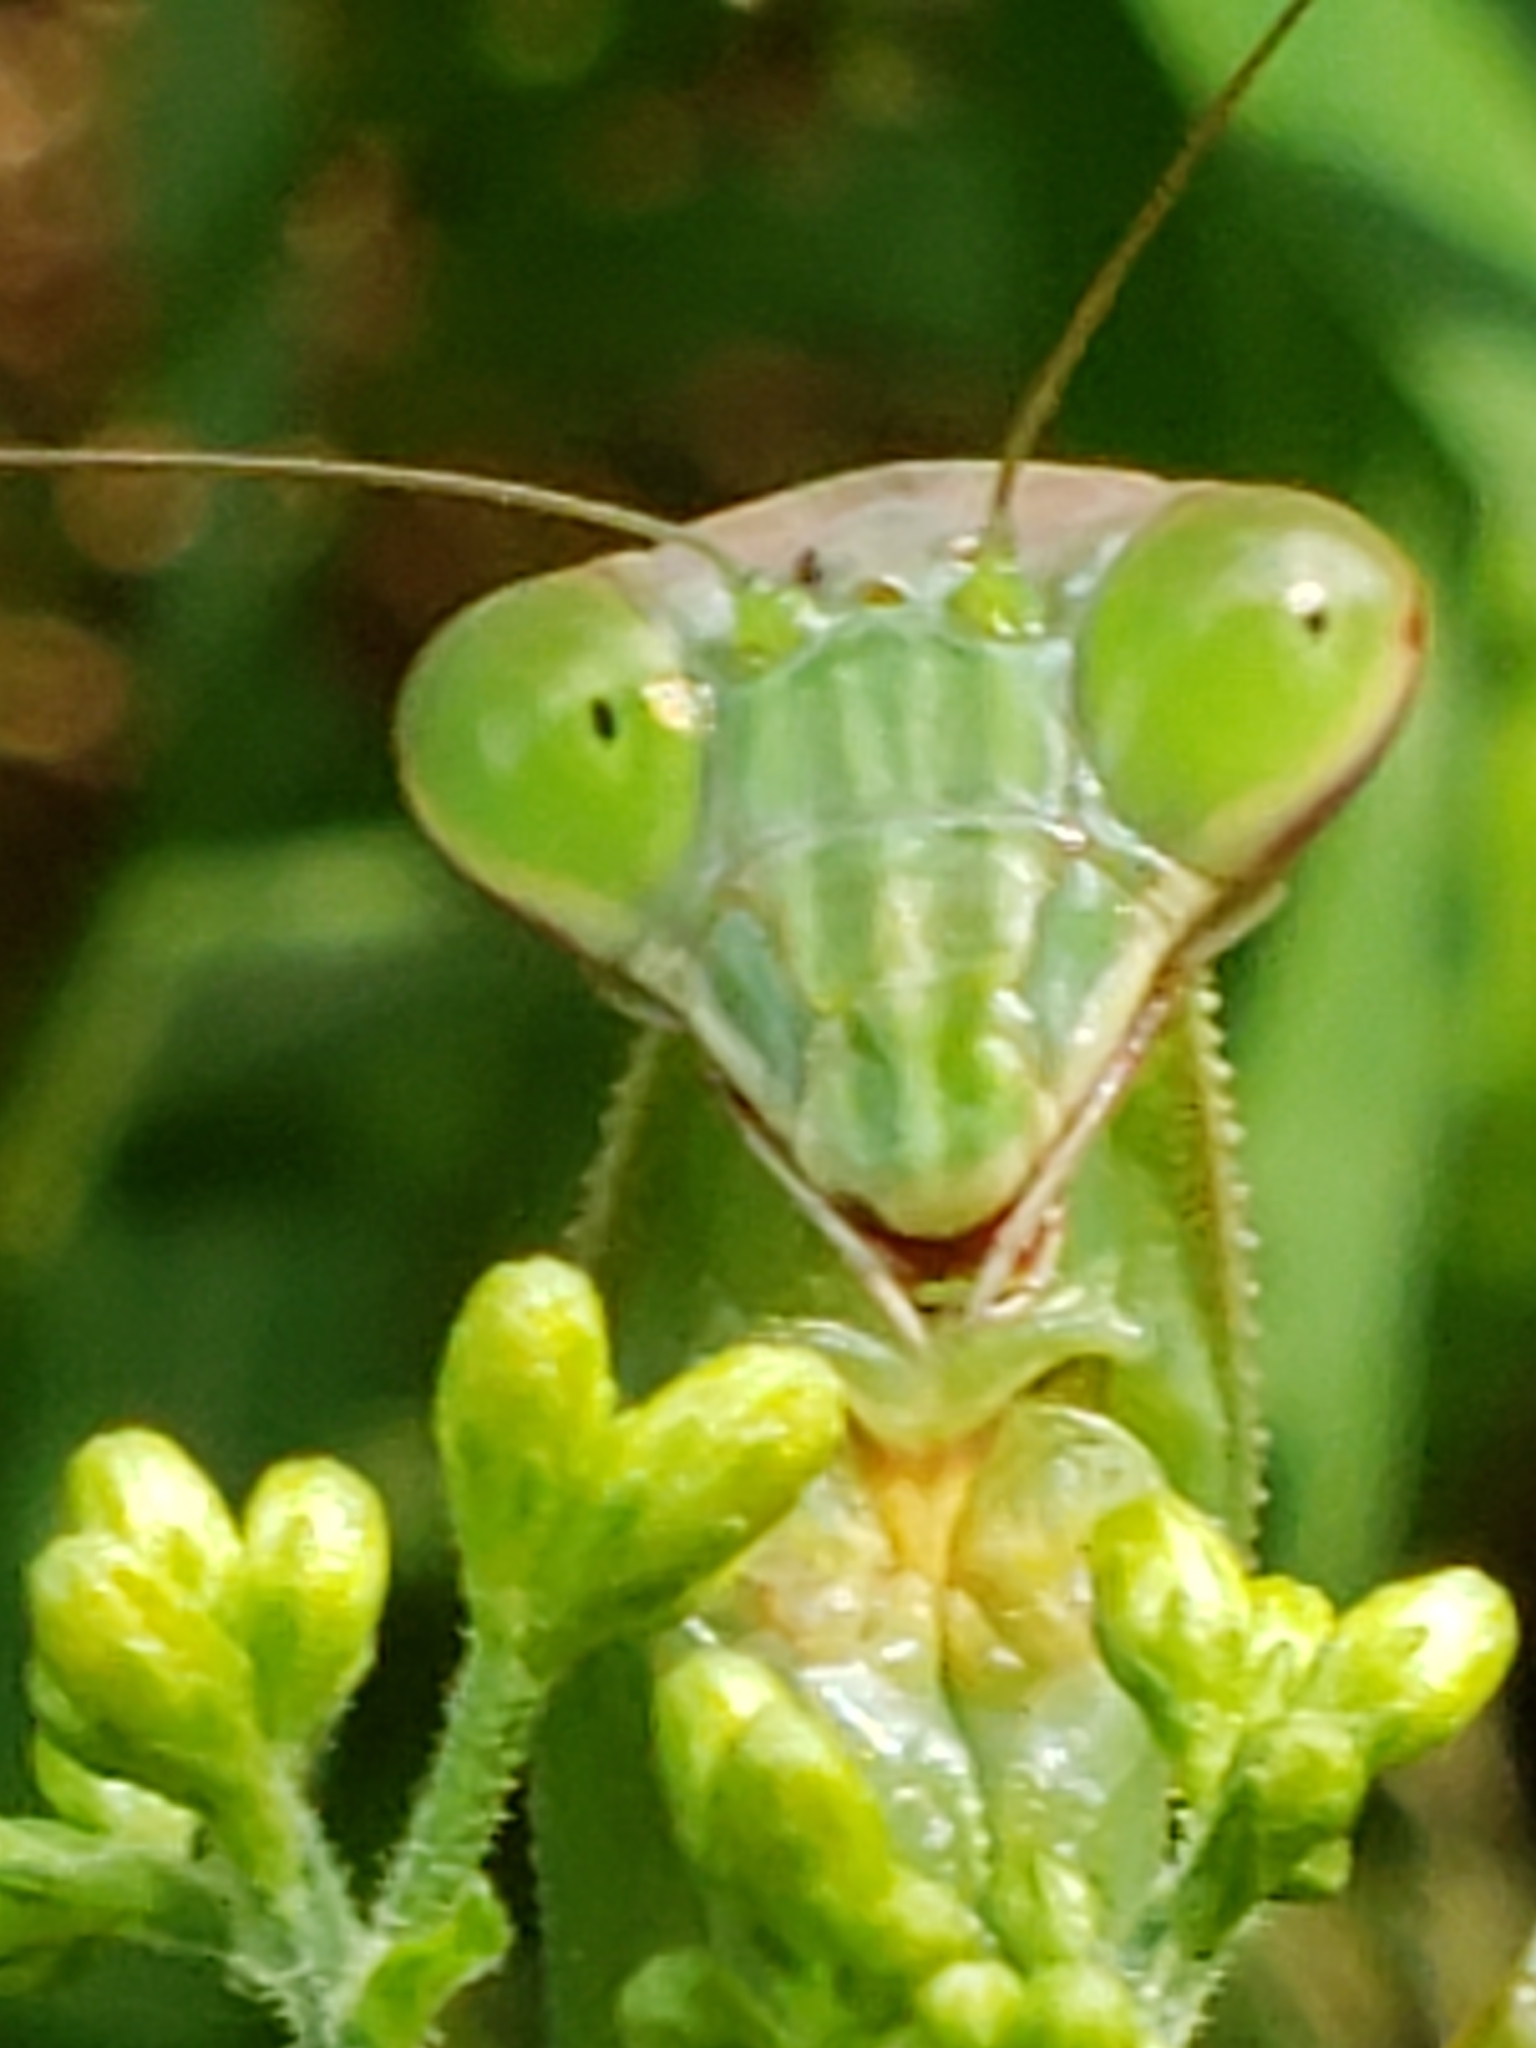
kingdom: Animalia
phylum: Arthropoda
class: Insecta
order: Mantodea
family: Mantidae
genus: Tenodera
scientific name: Tenodera sinensis
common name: Chinese mantis
